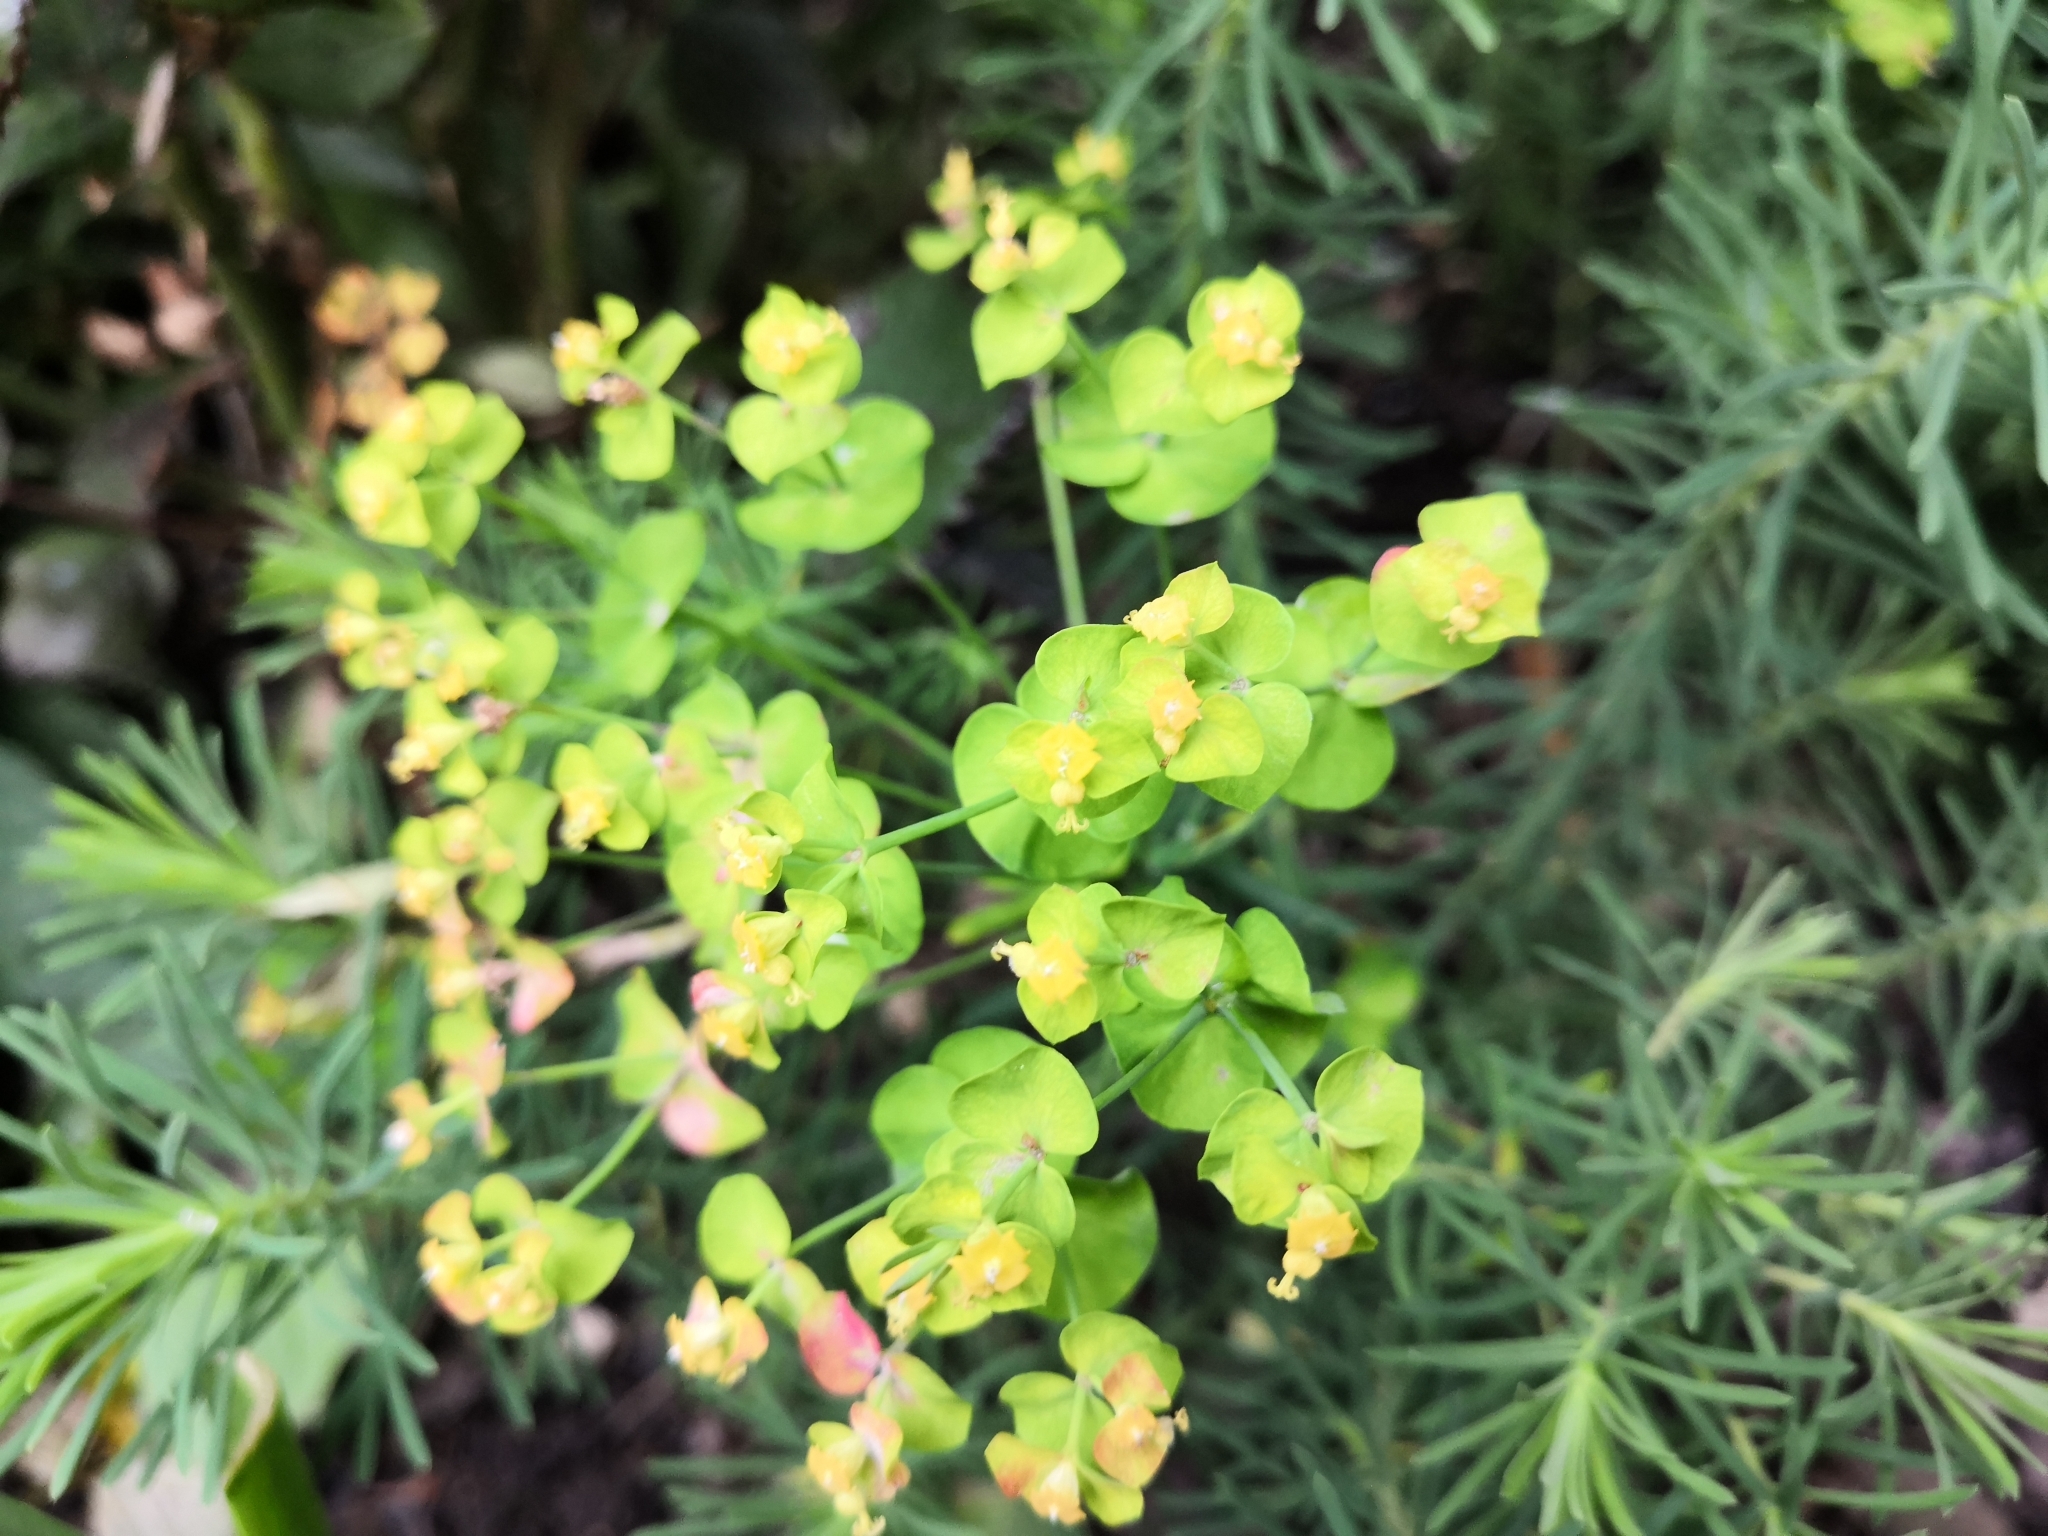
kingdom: Plantae
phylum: Tracheophyta
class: Magnoliopsida
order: Malpighiales
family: Euphorbiaceae
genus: Euphorbia
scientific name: Euphorbia cyparissias
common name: Cypress spurge
